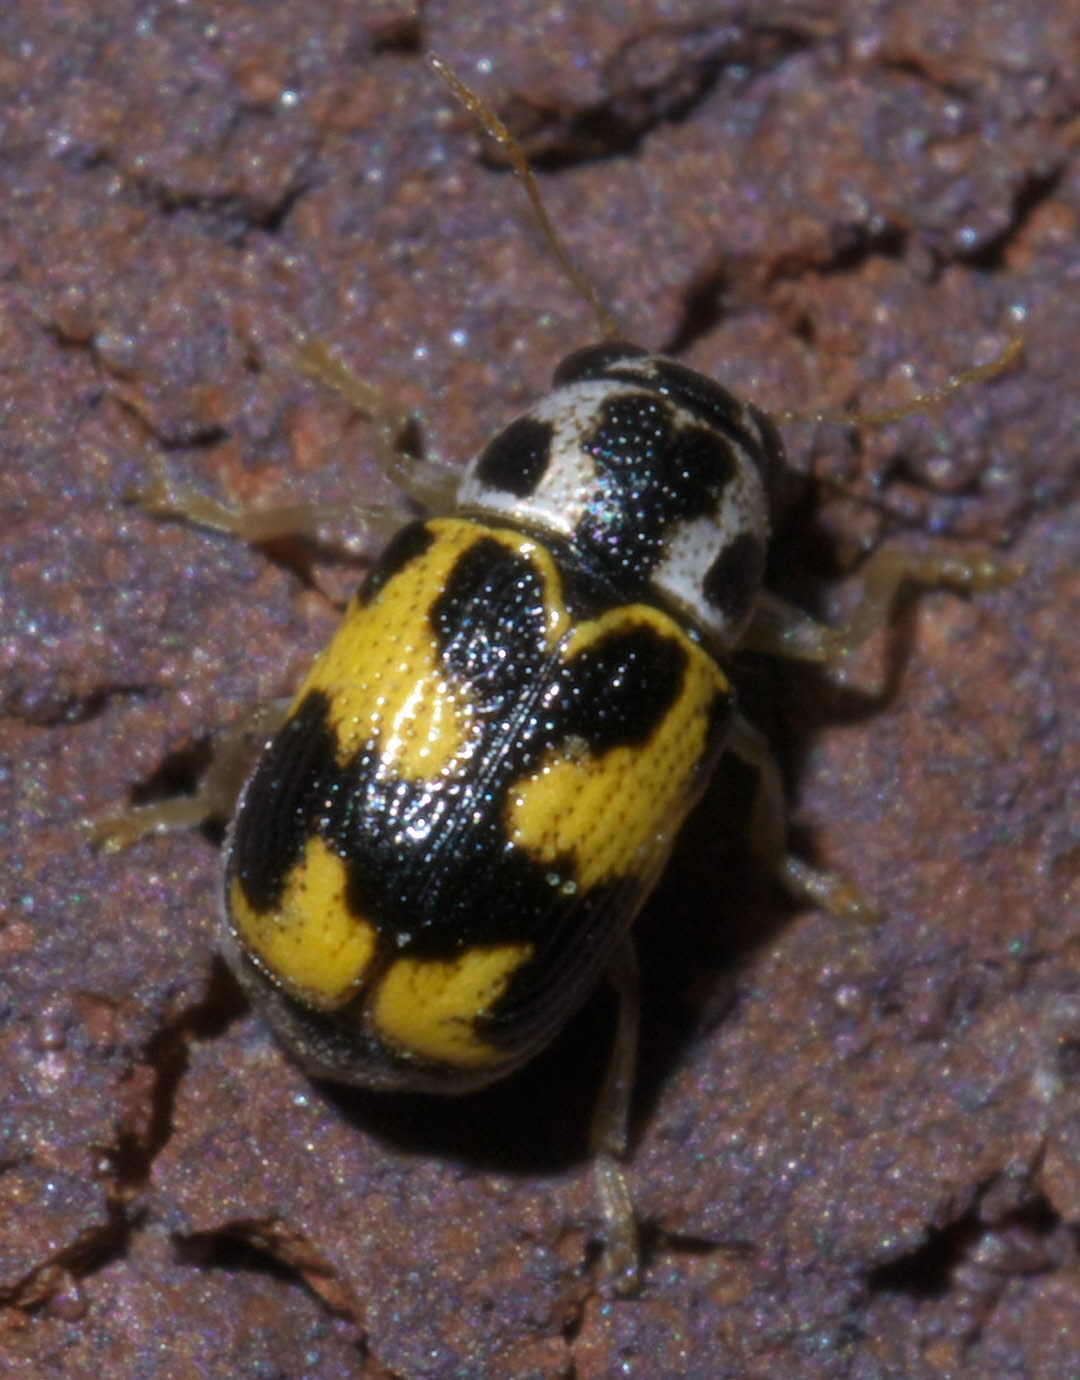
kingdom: Animalia
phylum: Arthropoda
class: Insecta
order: Coleoptera
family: Chrysomelidae
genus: Pachybrachis
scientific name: Pachybrachis tridens
